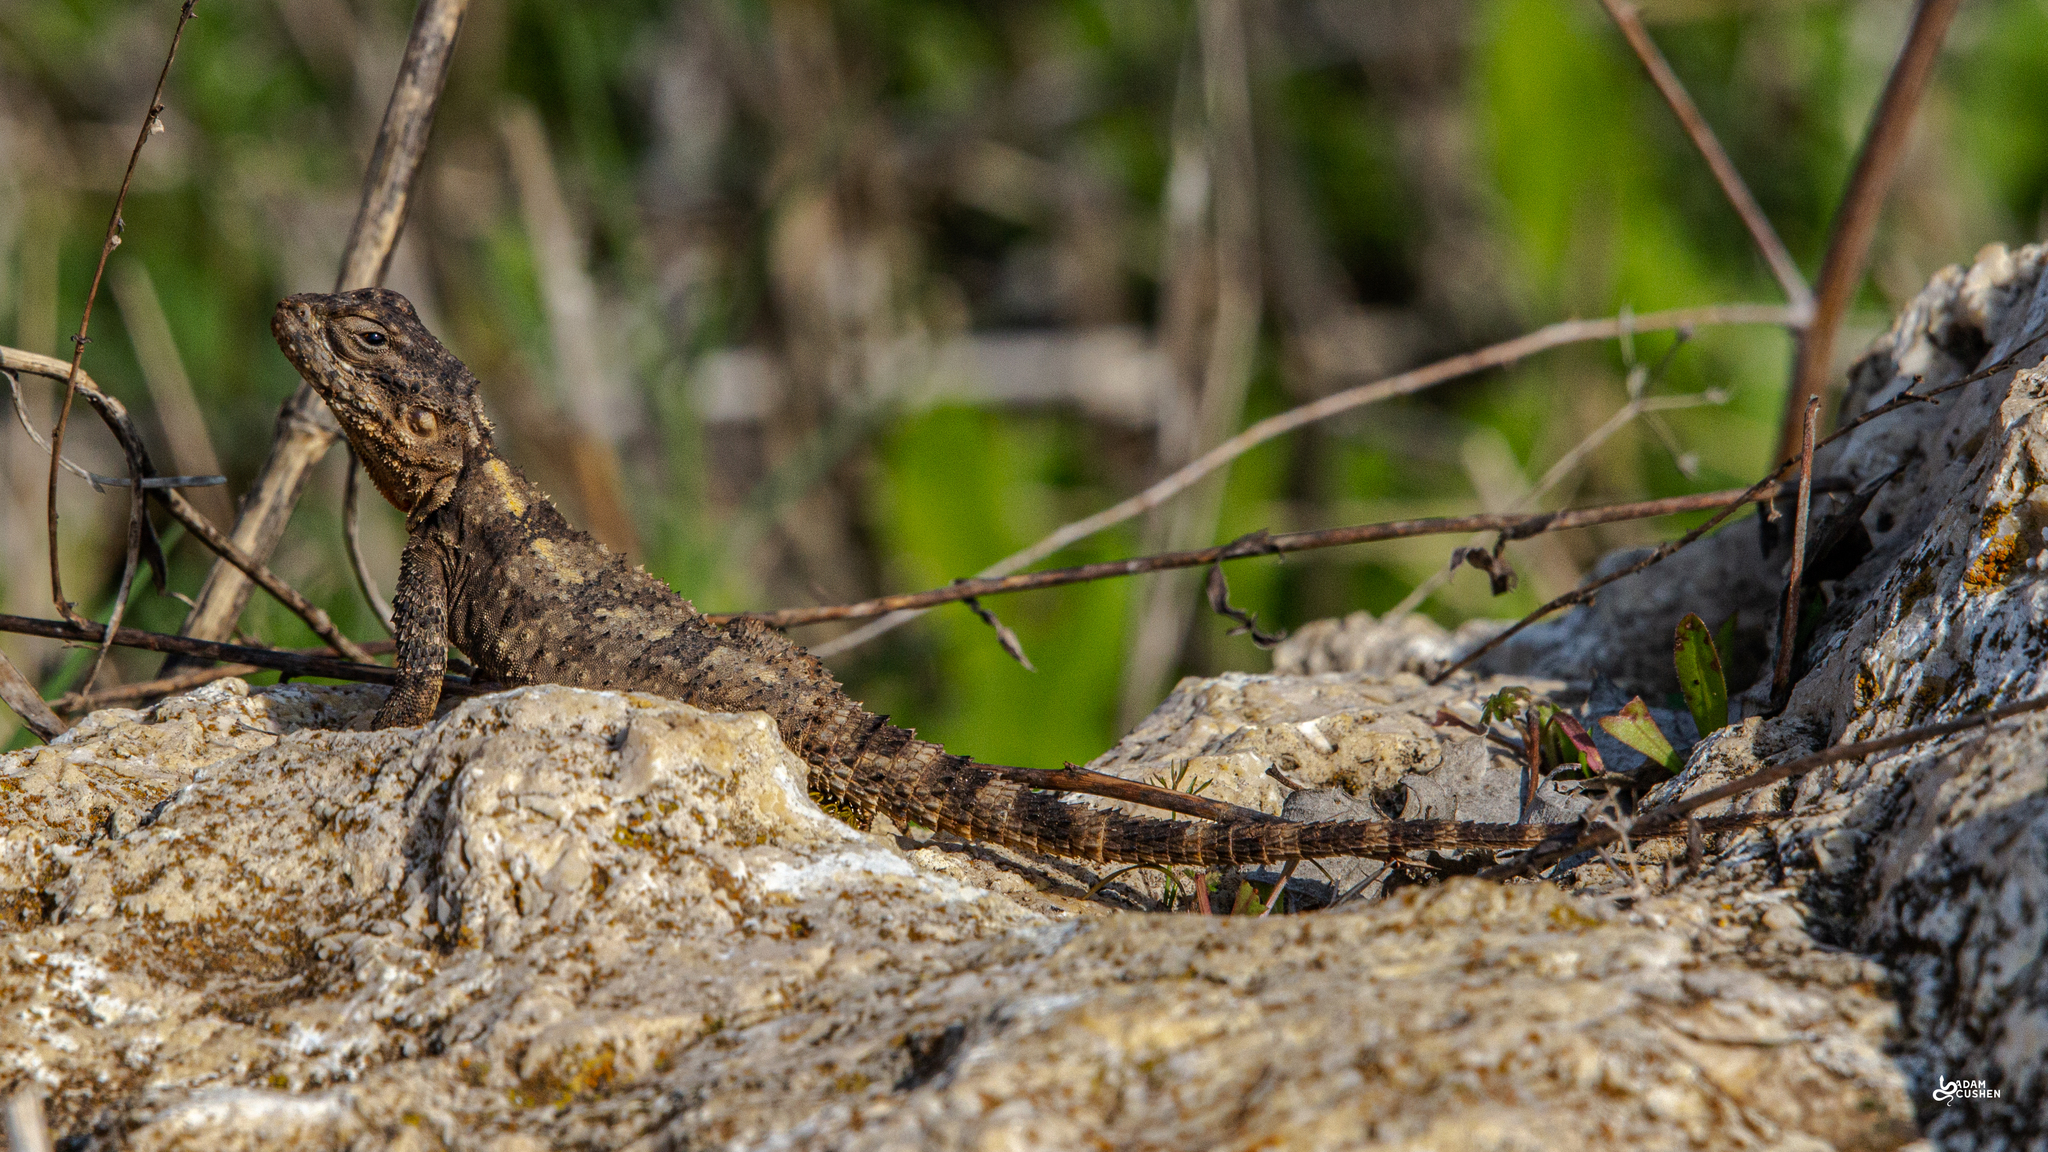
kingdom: Animalia
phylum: Chordata
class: Squamata
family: Agamidae
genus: Laudakia
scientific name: Laudakia vulgaris
